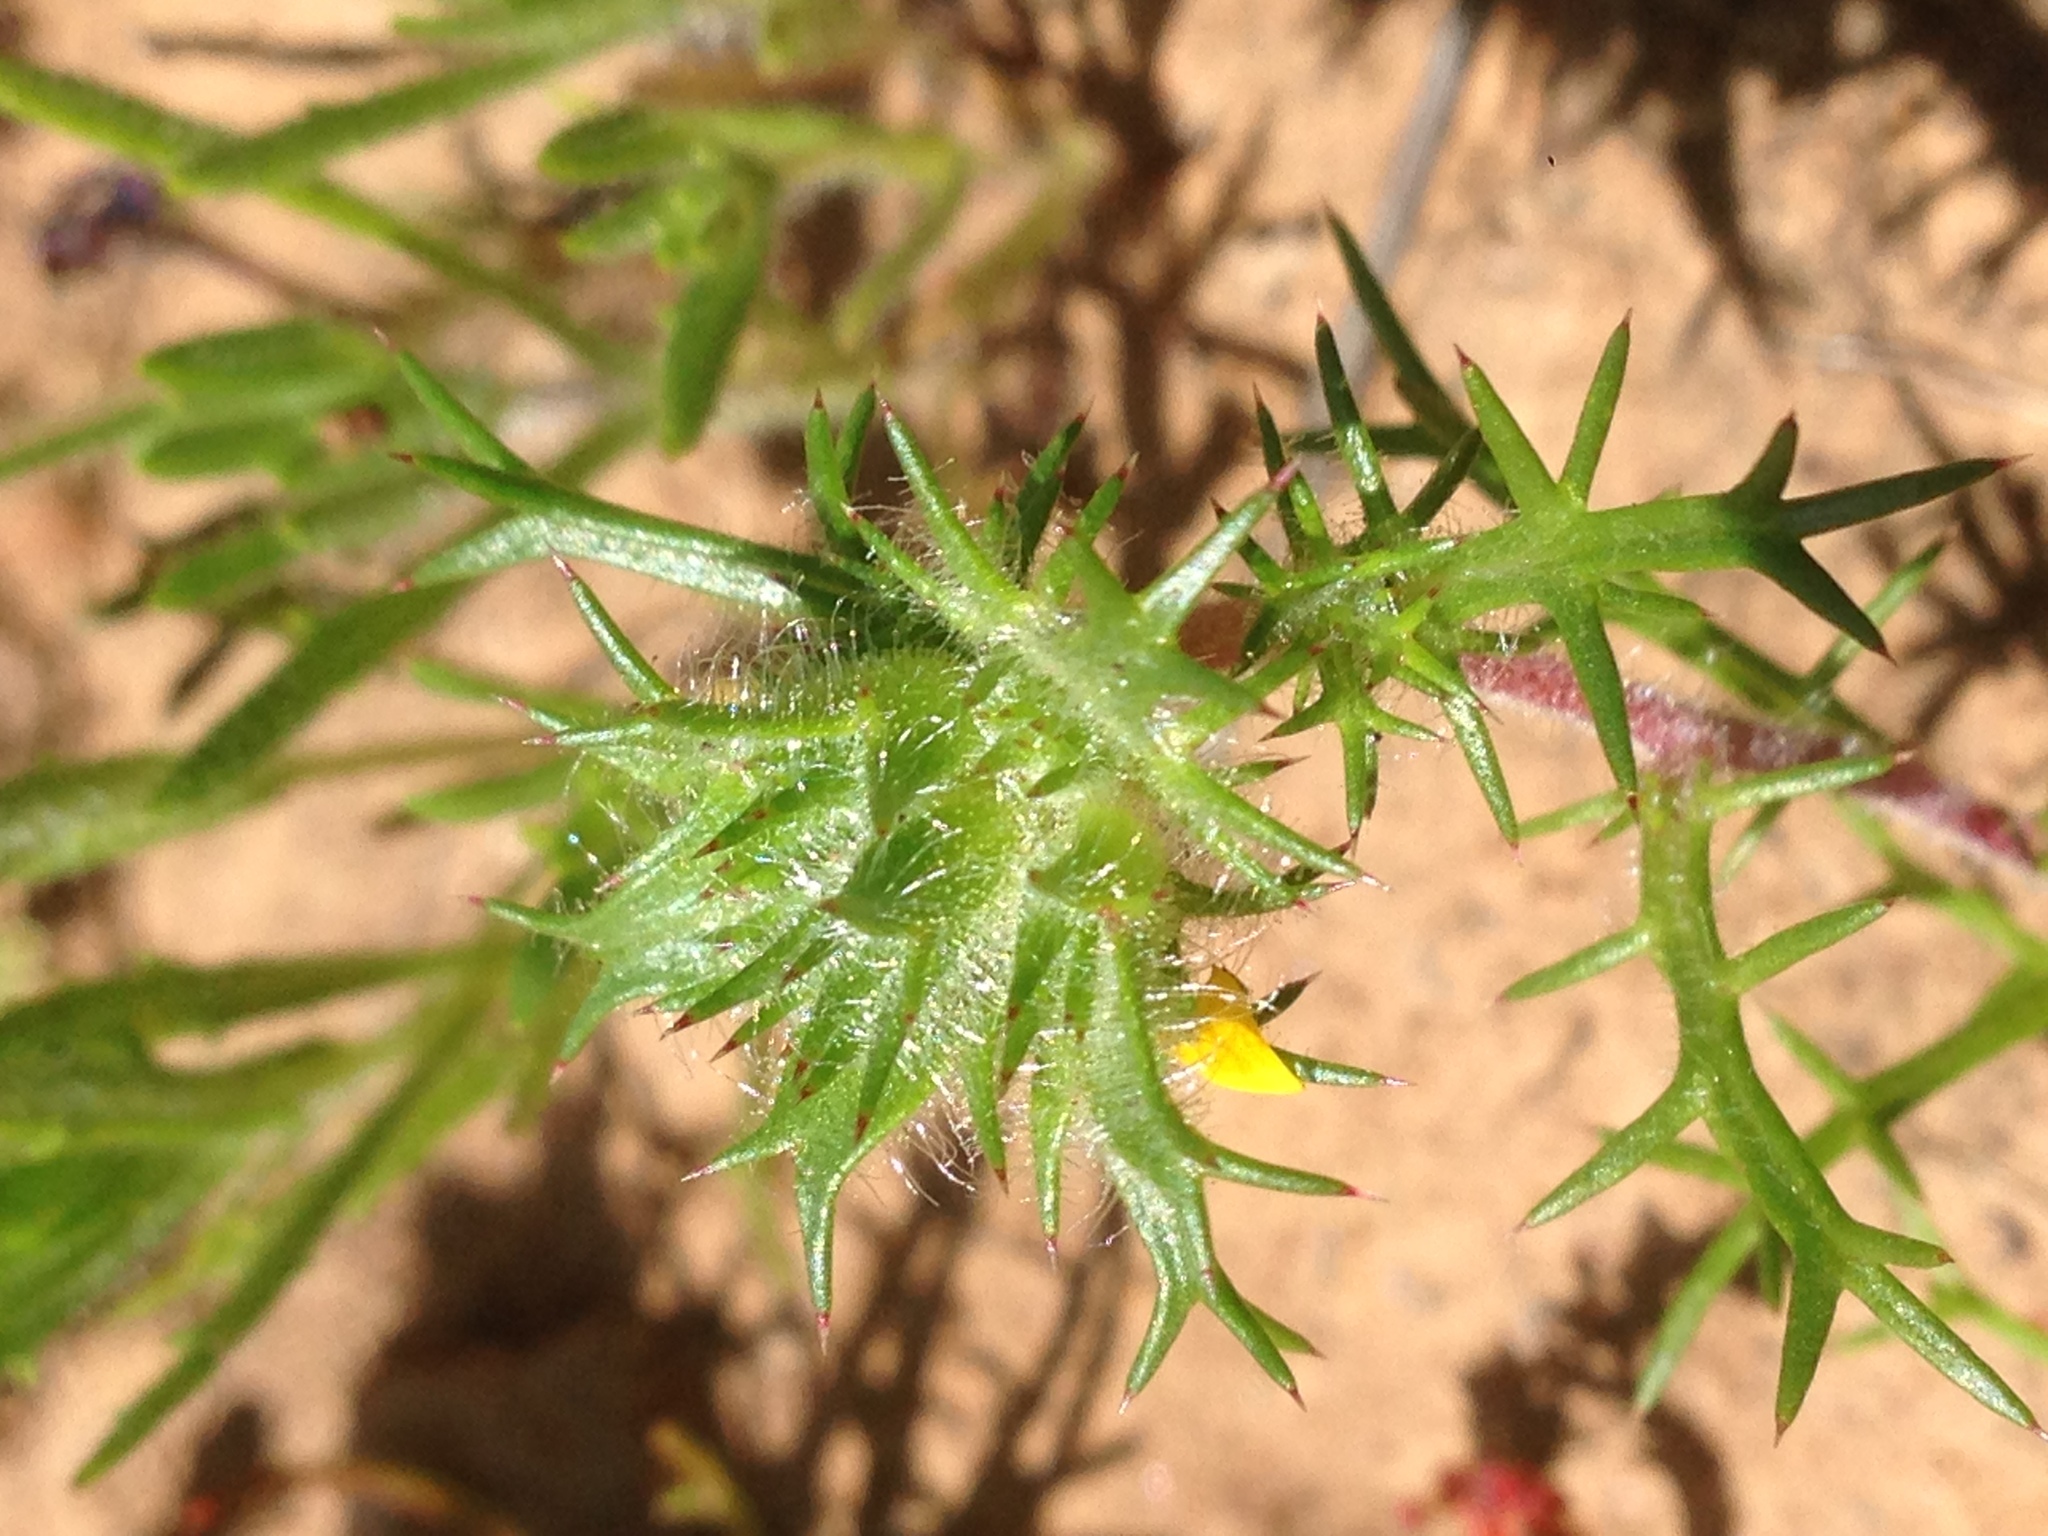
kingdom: Plantae
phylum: Tracheophyta
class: Magnoliopsida
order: Ericales
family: Polemoniaceae
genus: Navarretia
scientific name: Navarretia hamata
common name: Hooked navarretia
